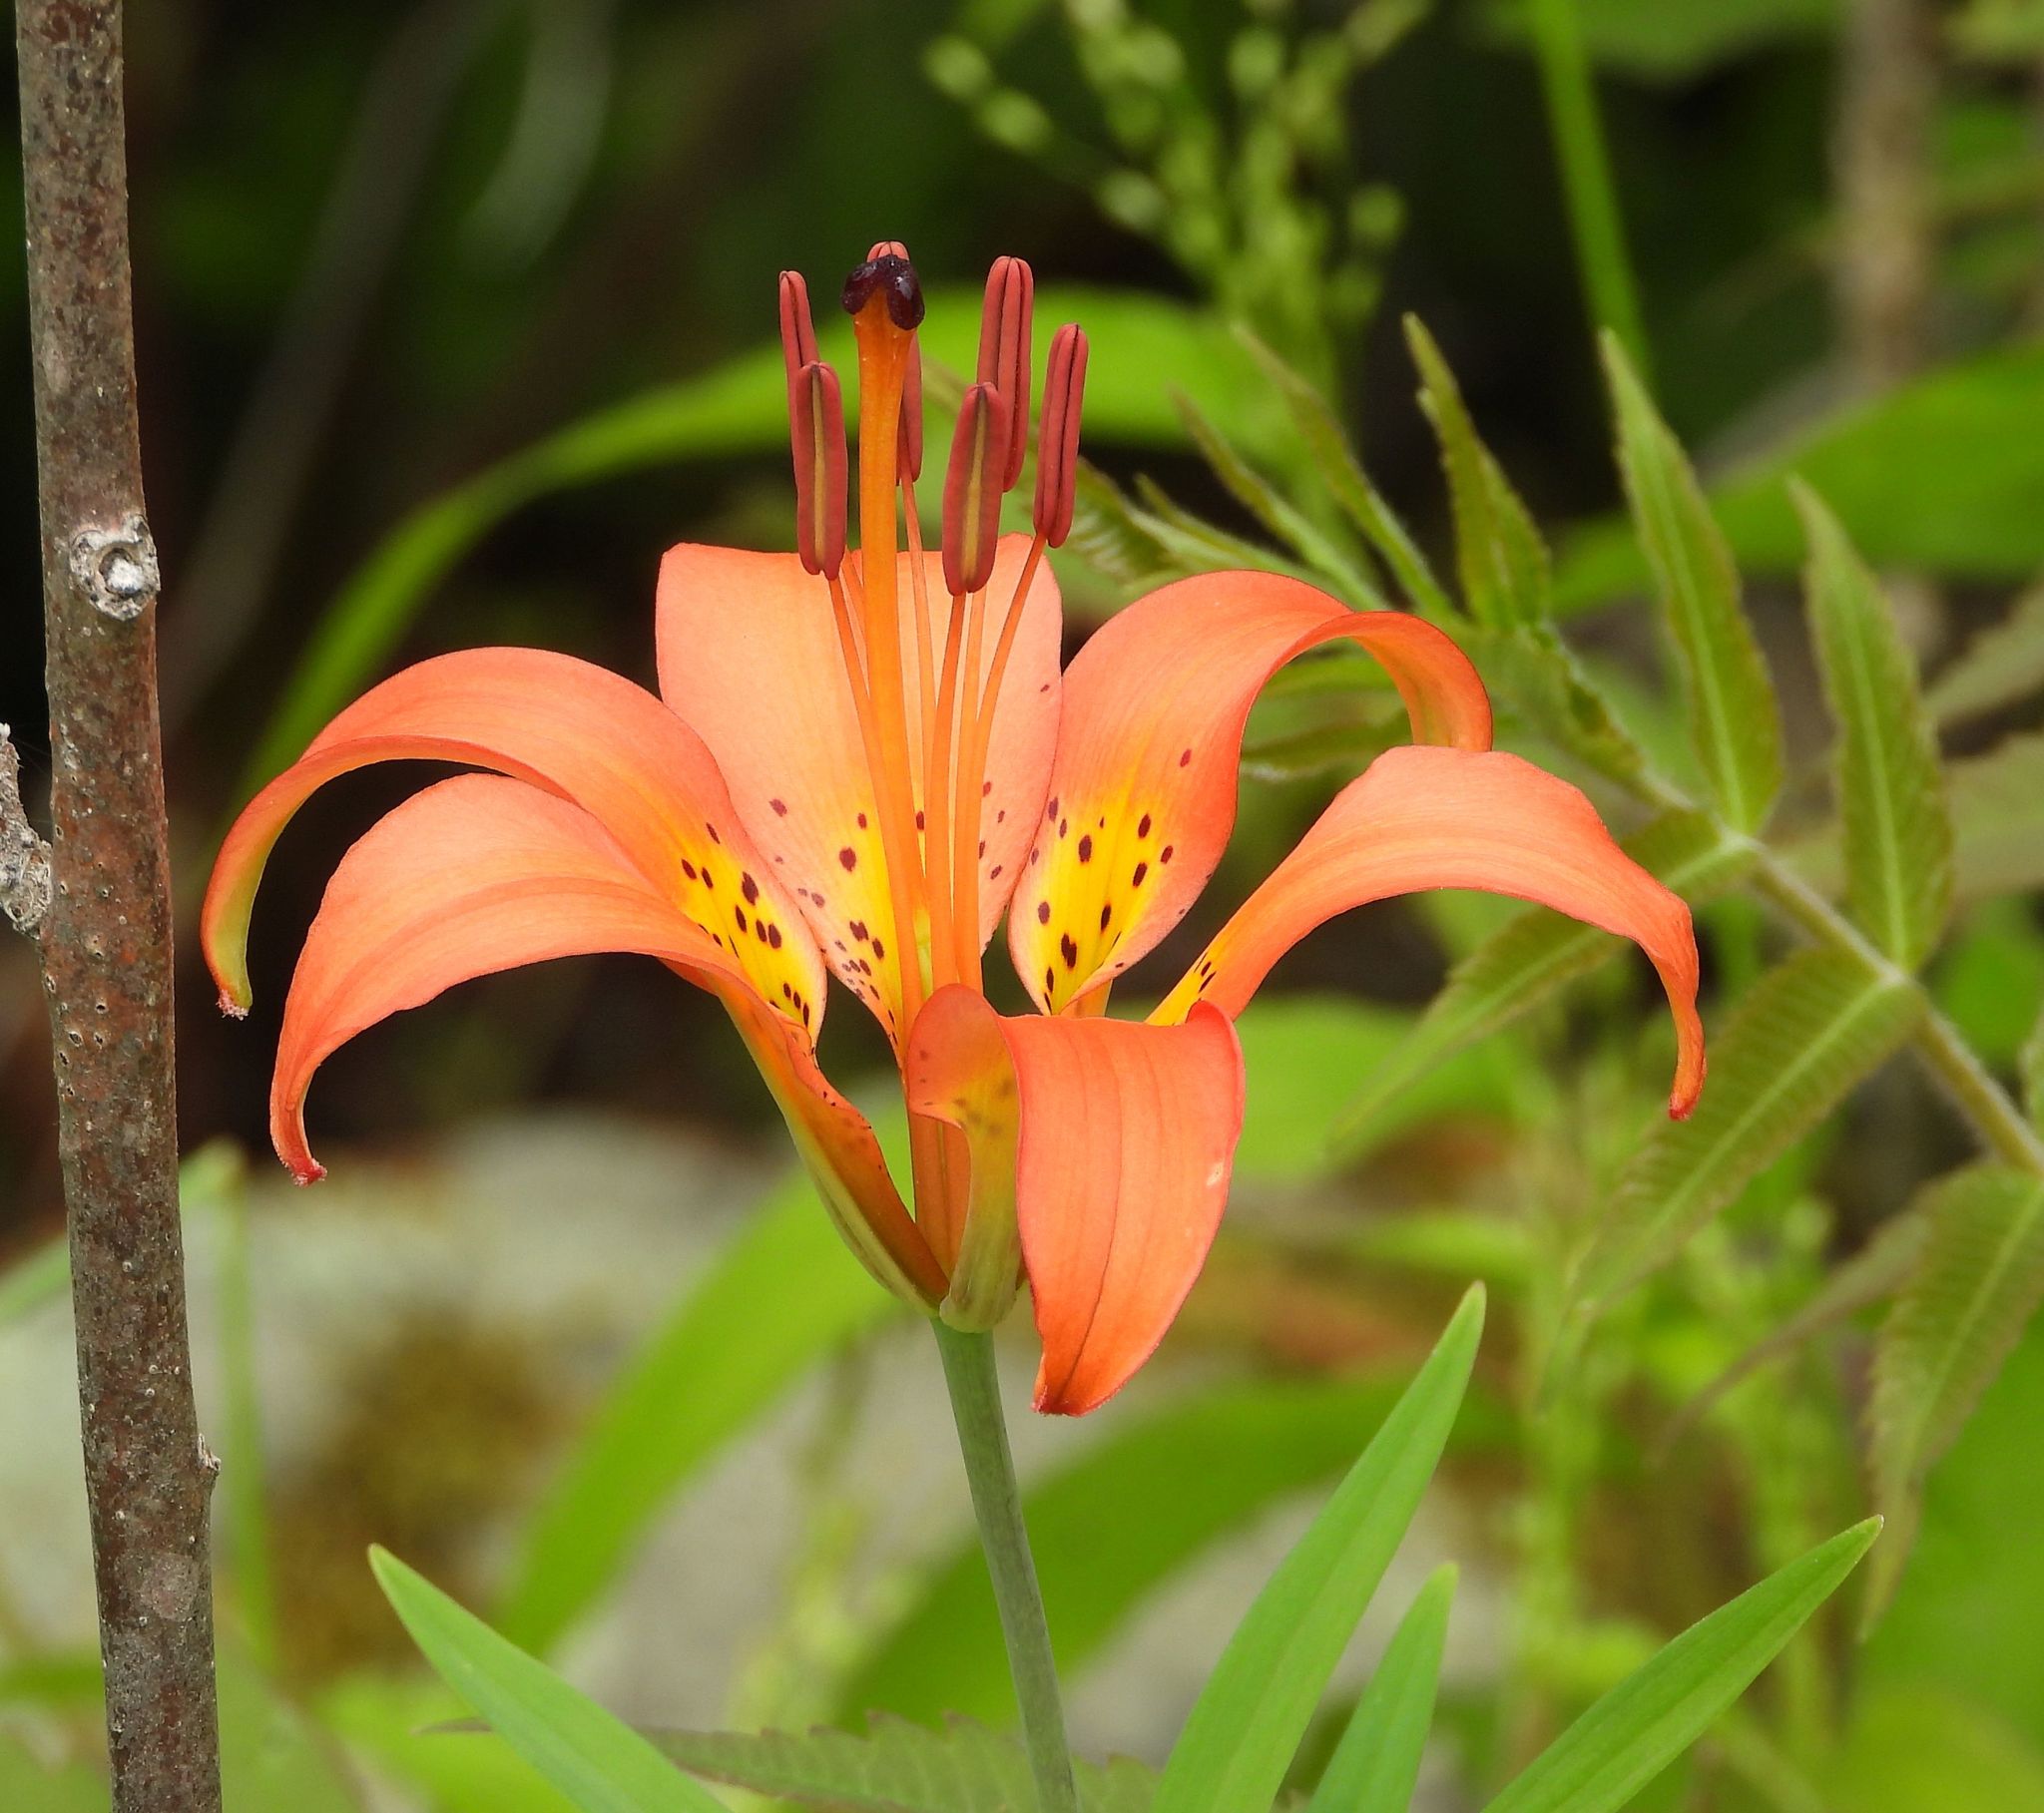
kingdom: Plantae
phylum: Tracheophyta
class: Liliopsida
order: Liliales
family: Liliaceae
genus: Lilium
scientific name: Lilium philadelphicum
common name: Red lily
